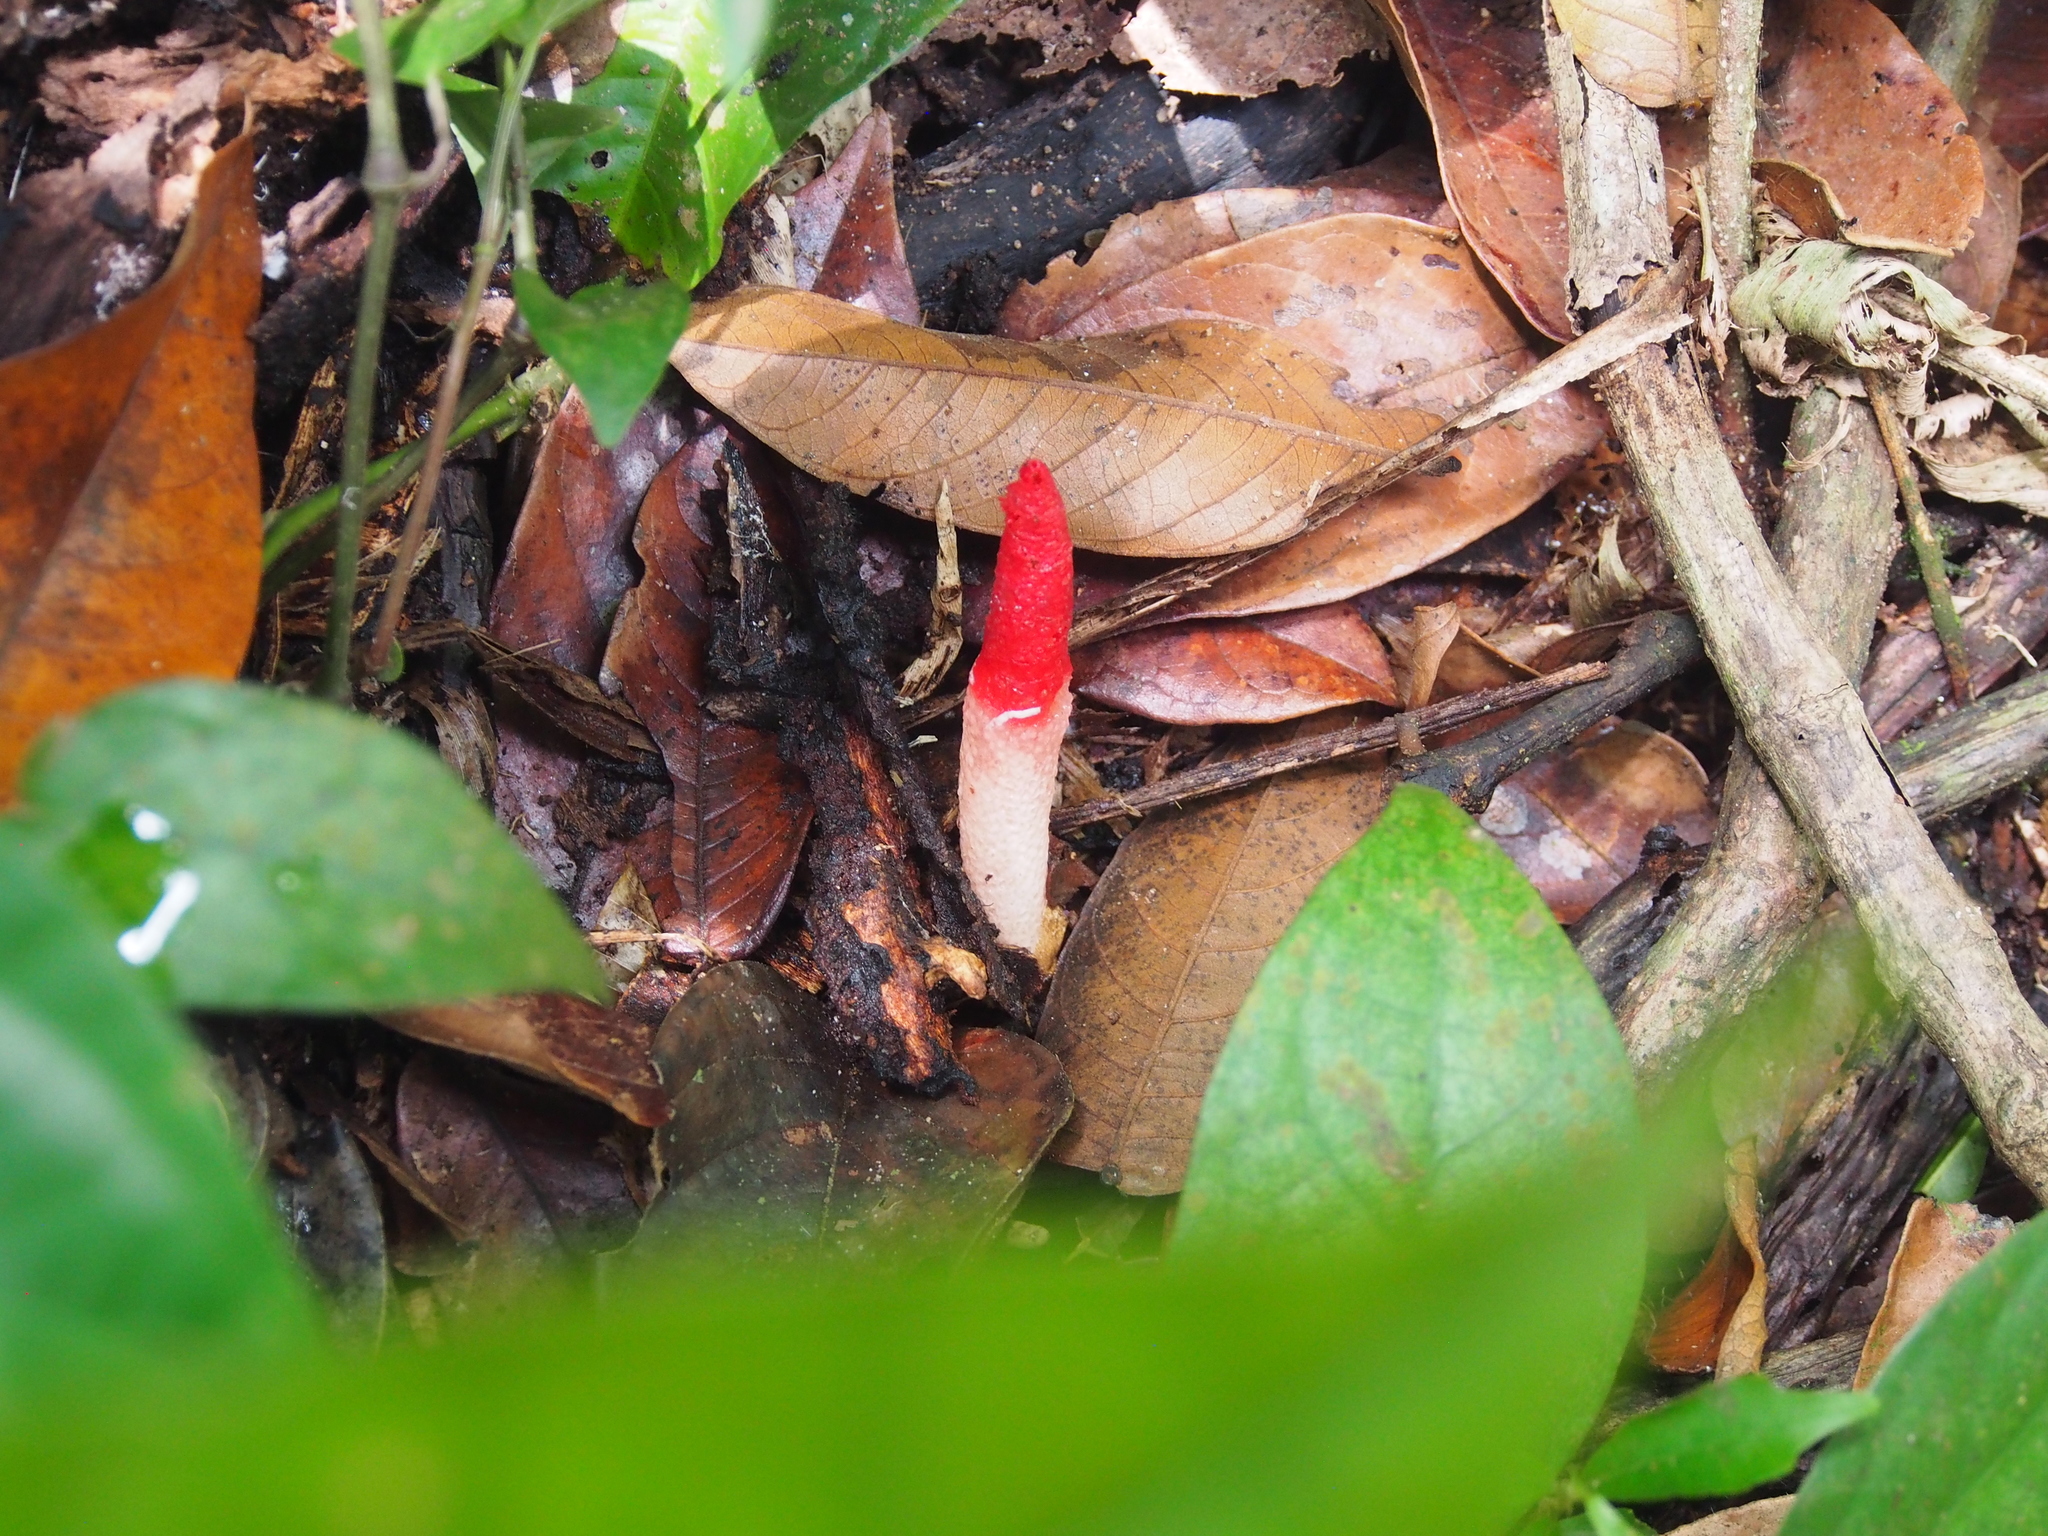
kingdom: Fungi
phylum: Basidiomycota
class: Agaricomycetes
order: Phallales
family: Phallaceae
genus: Mutinus
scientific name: Mutinus argentinus
